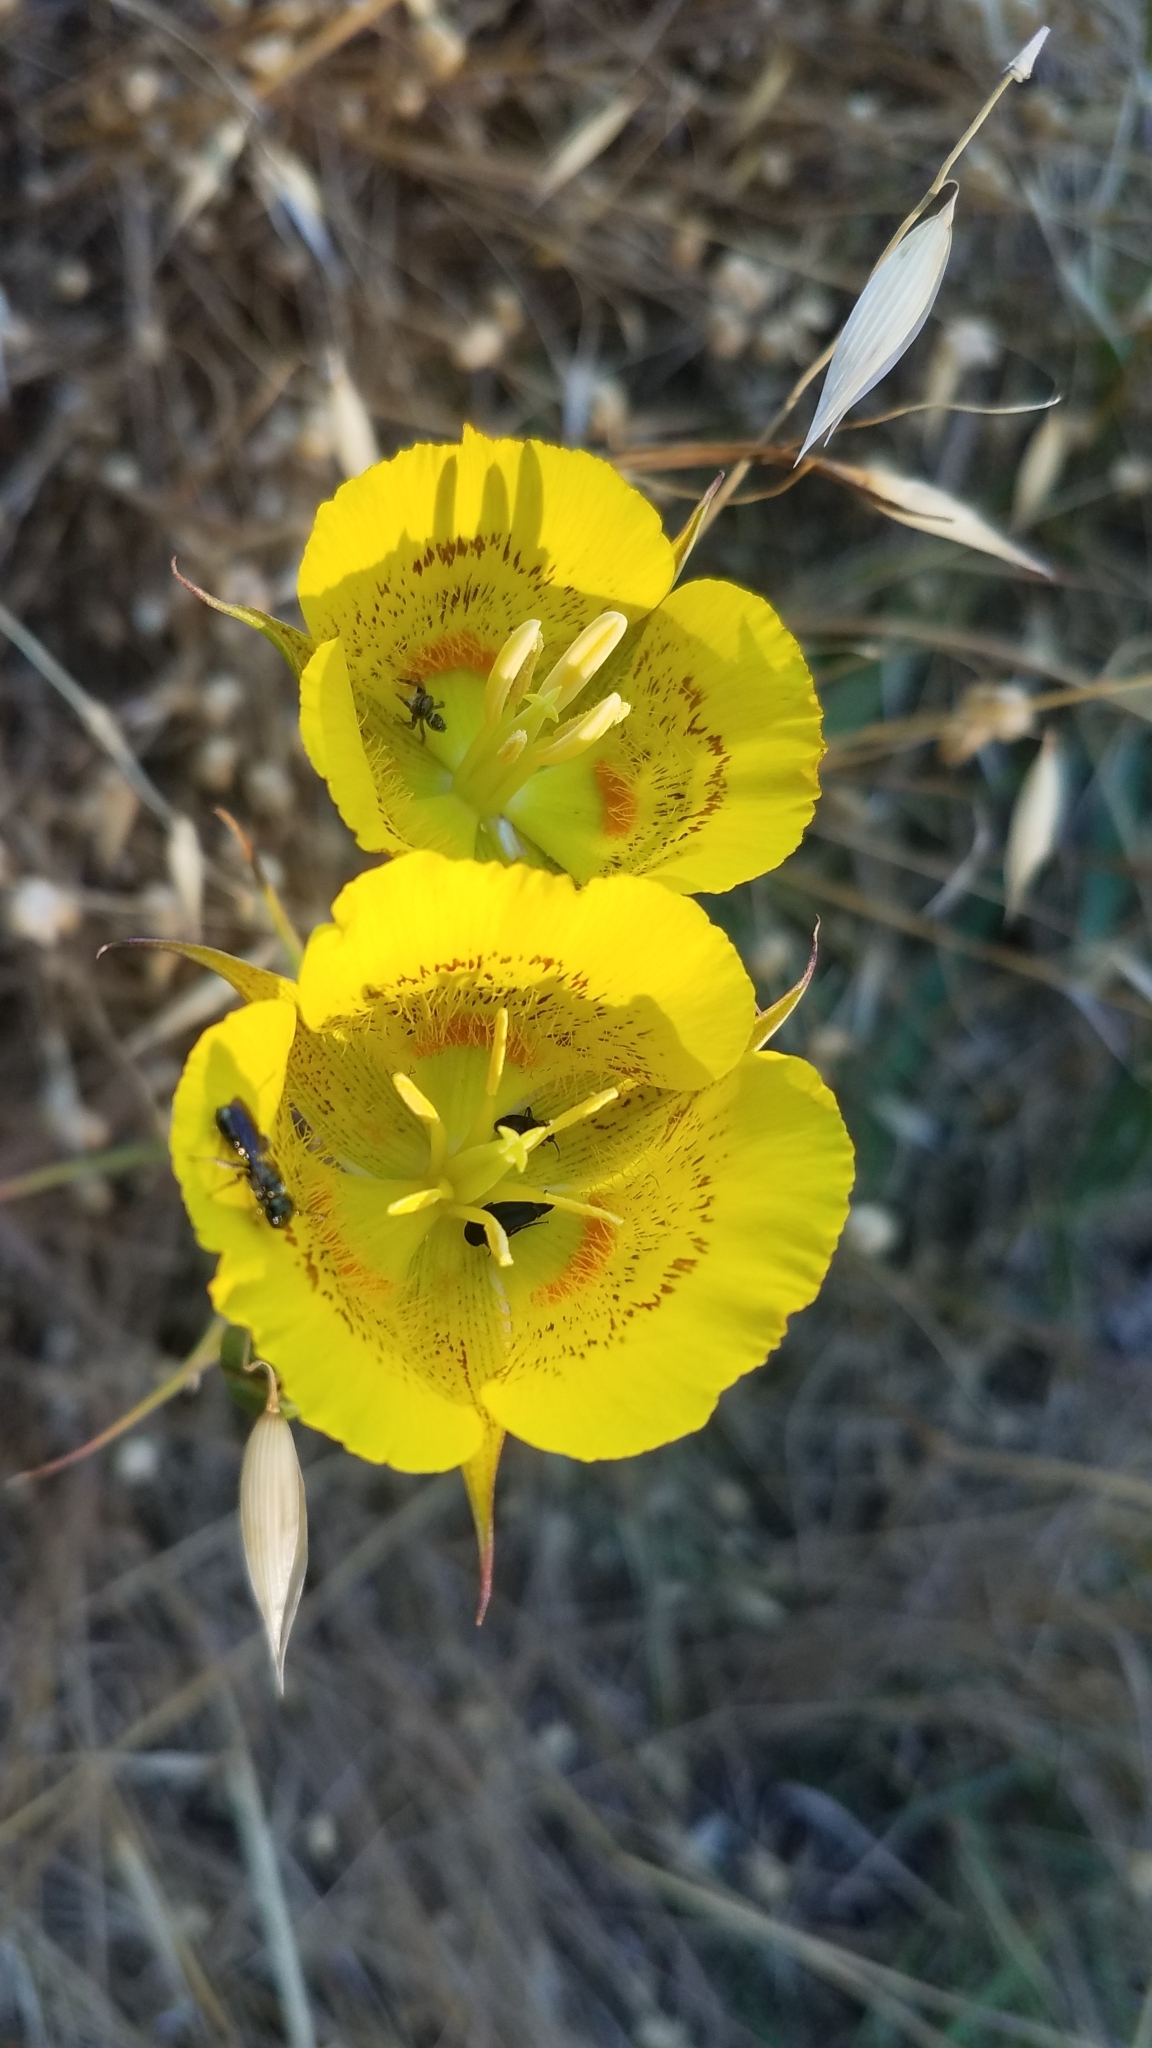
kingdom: Plantae
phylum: Tracheophyta
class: Liliopsida
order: Liliales
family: Liliaceae
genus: Calochortus
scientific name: Calochortus luteus
